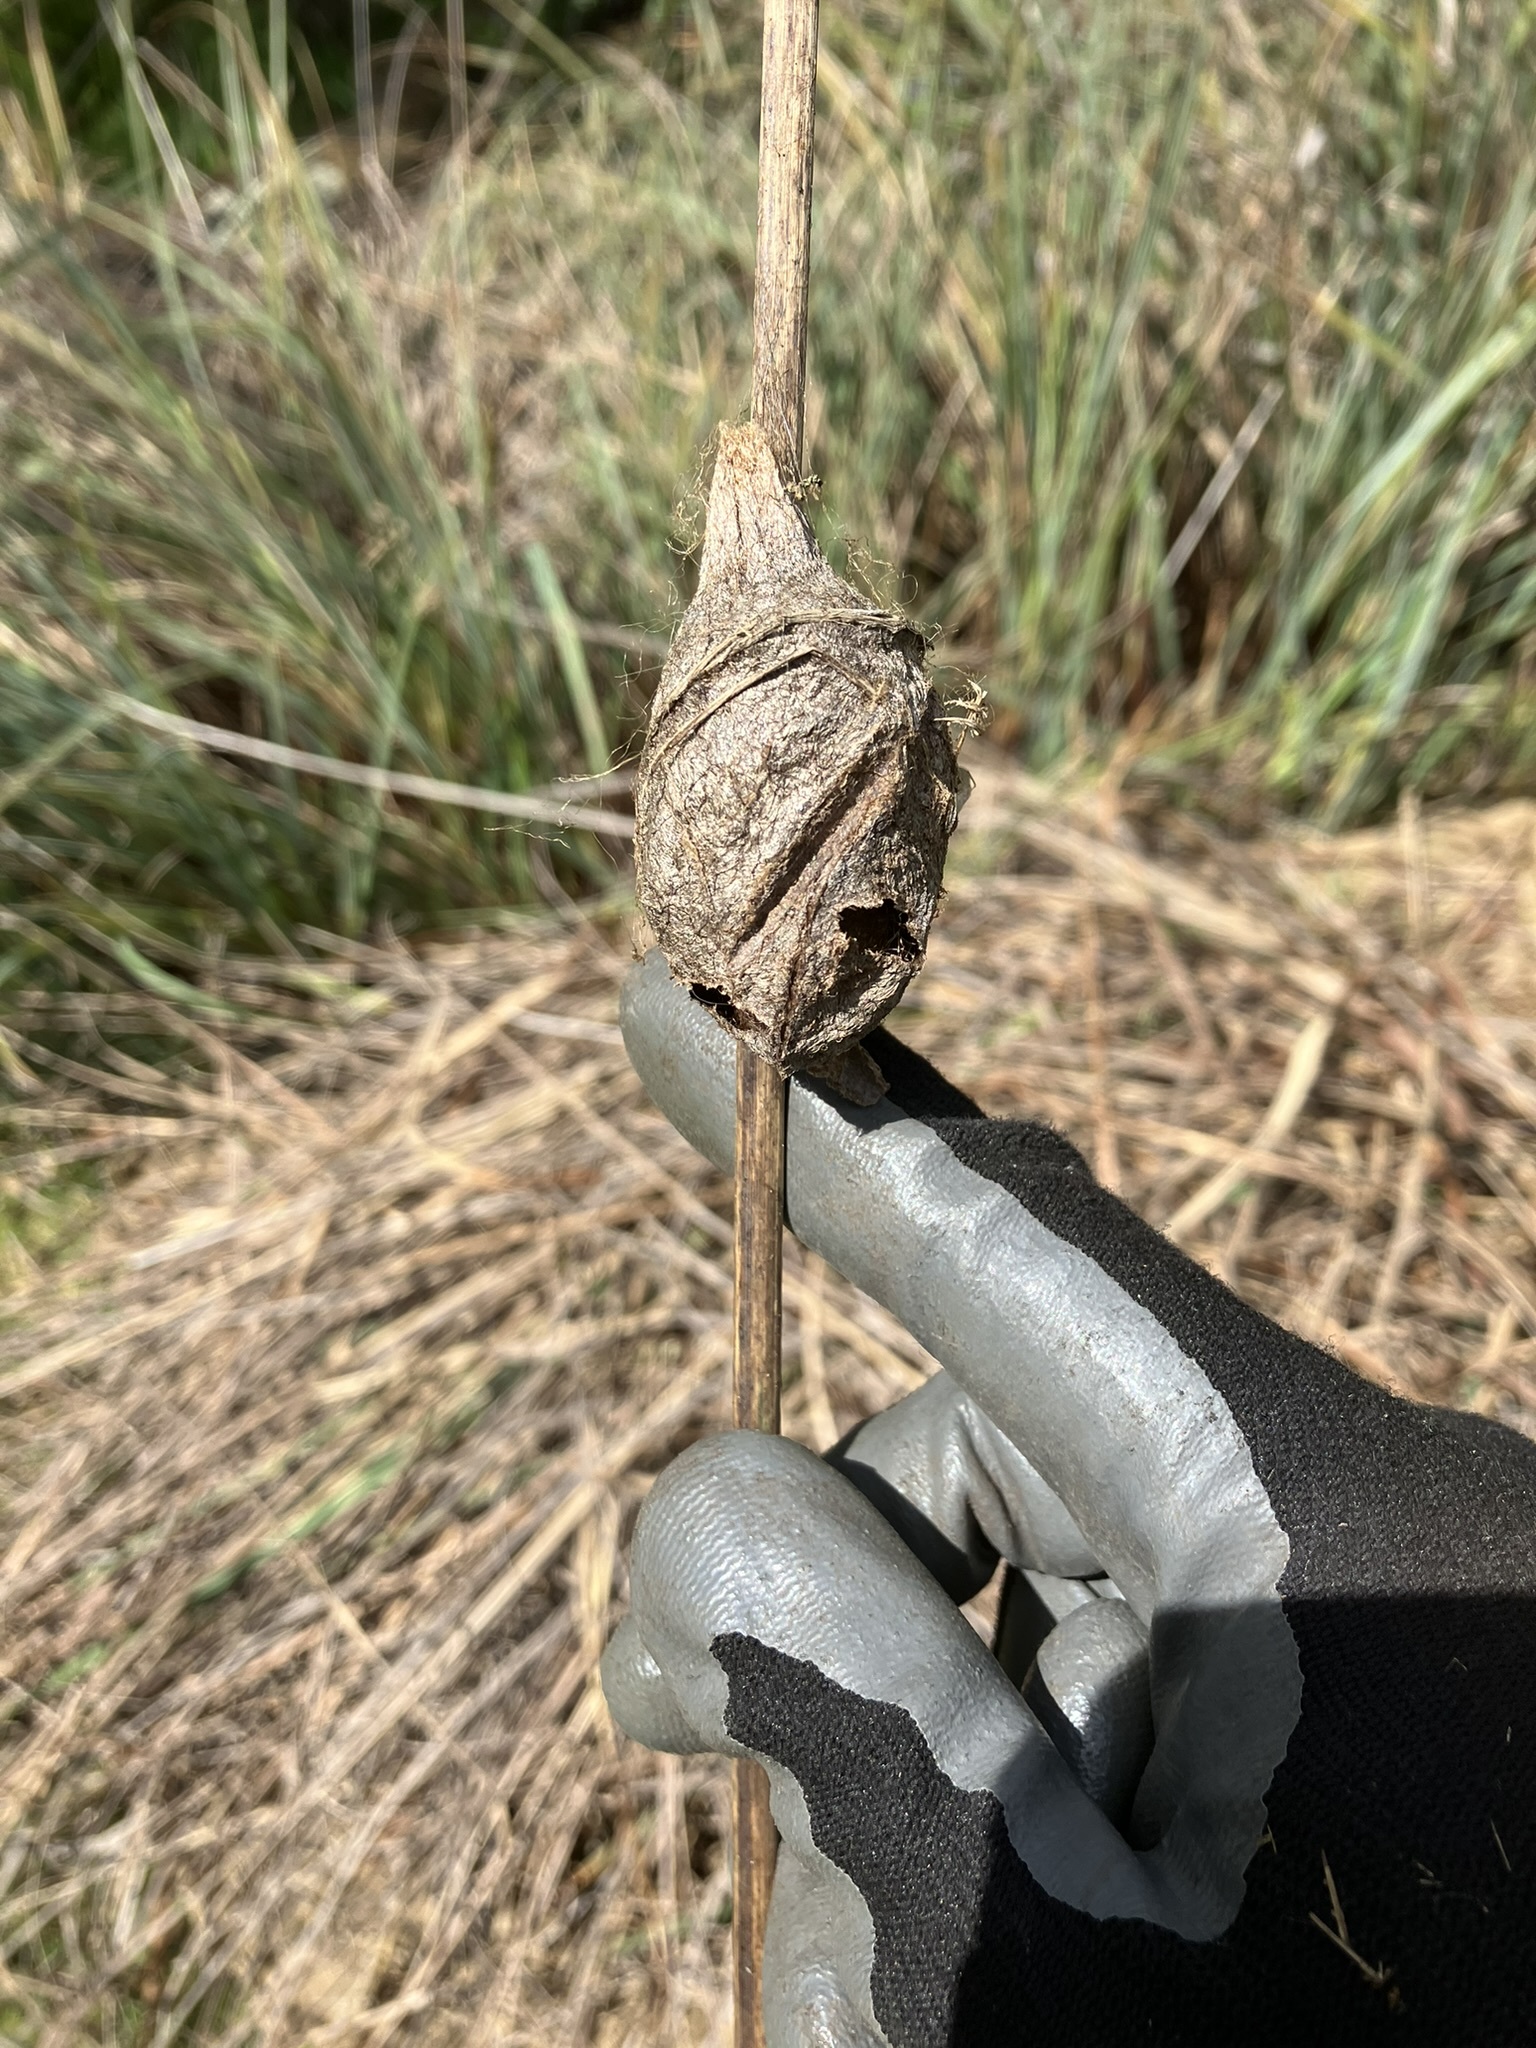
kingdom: Animalia
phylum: Arthropoda
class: Insecta
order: Lepidoptera
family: Saturniidae
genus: Hyalophora
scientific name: Hyalophora euryalus
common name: Ceanothus silkmoth
